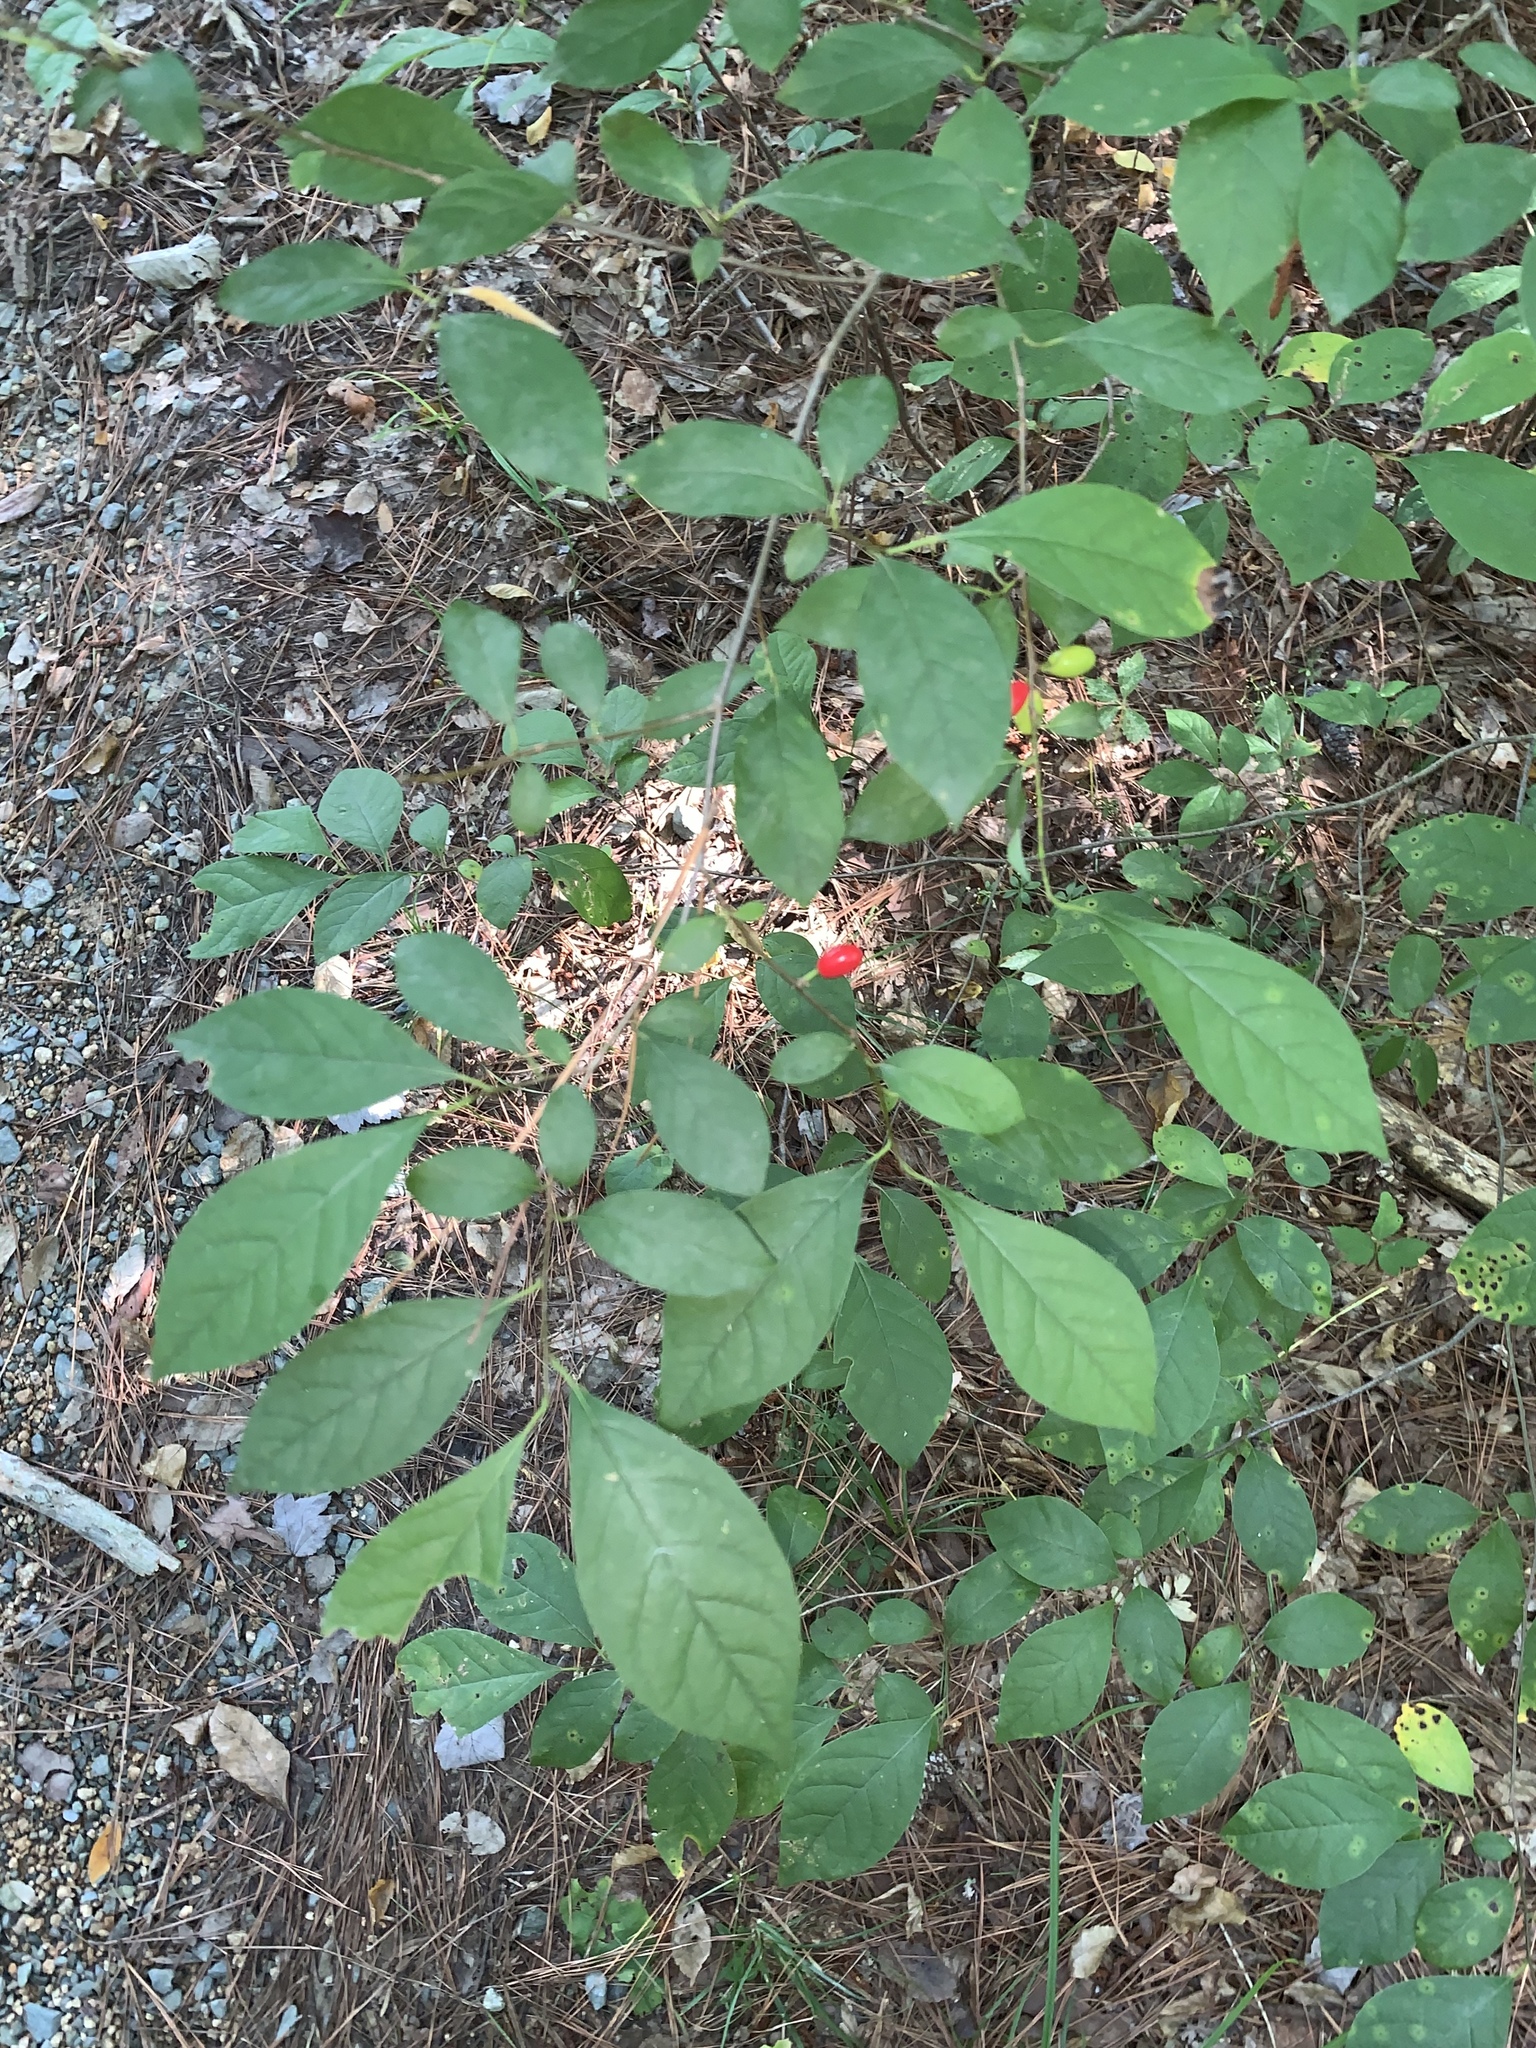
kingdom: Plantae
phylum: Tracheophyta
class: Magnoliopsida
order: Laurales
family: Lauraceae
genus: Lindera
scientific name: Lindera benzoin
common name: Spicebush
